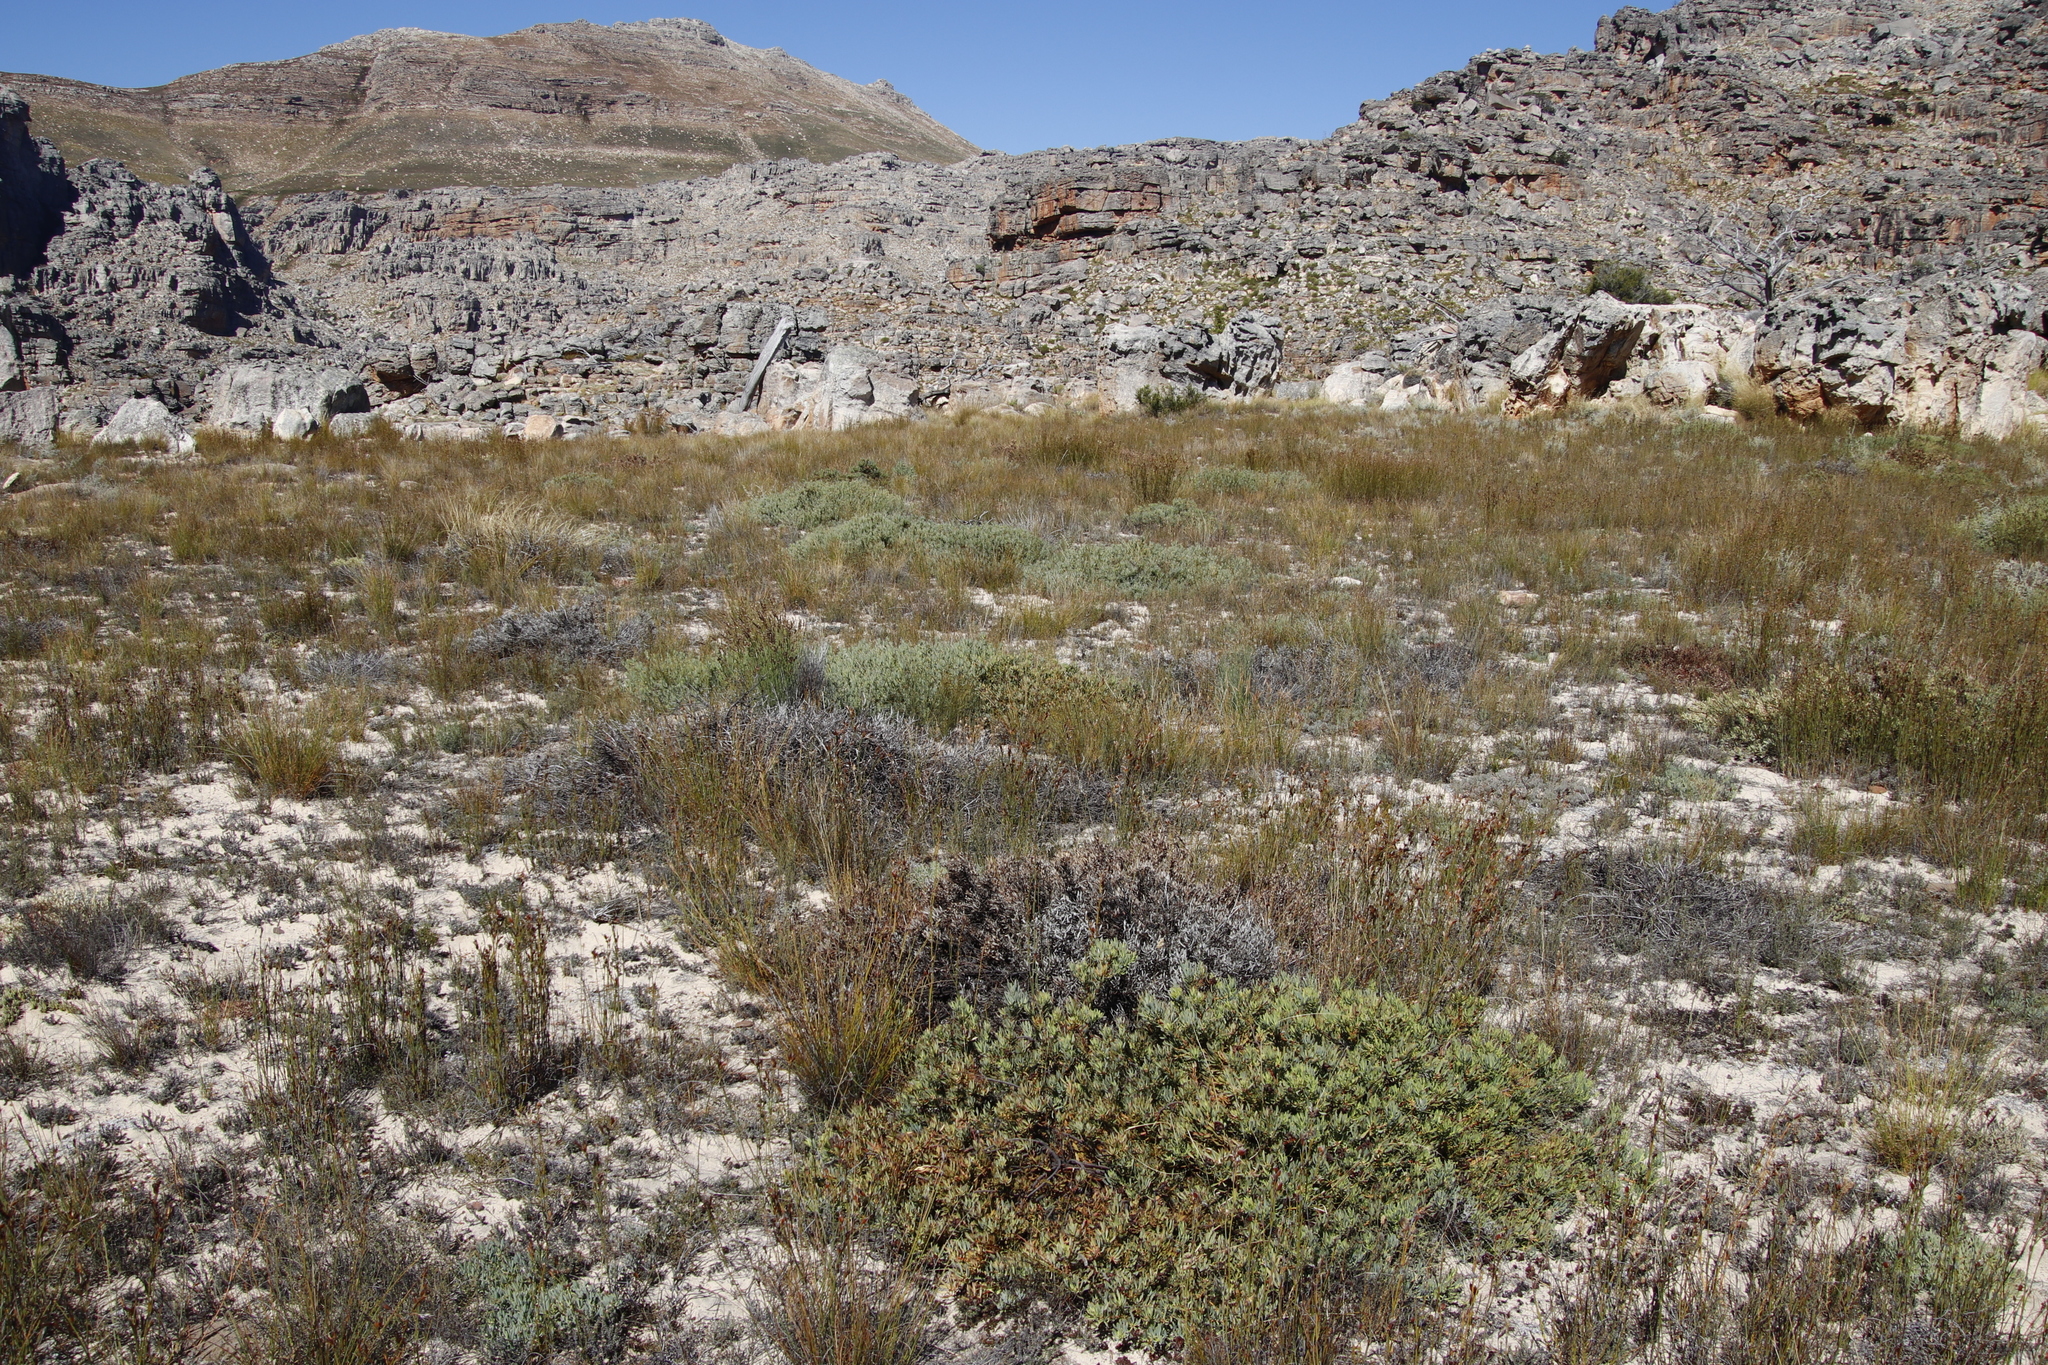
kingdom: Plantae
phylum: Tracheophyta
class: Magnoliopsida
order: Proteales
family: Proteaceae
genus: Leucadendron
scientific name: Leucadendron glaberrimum
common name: Common oily conebush
